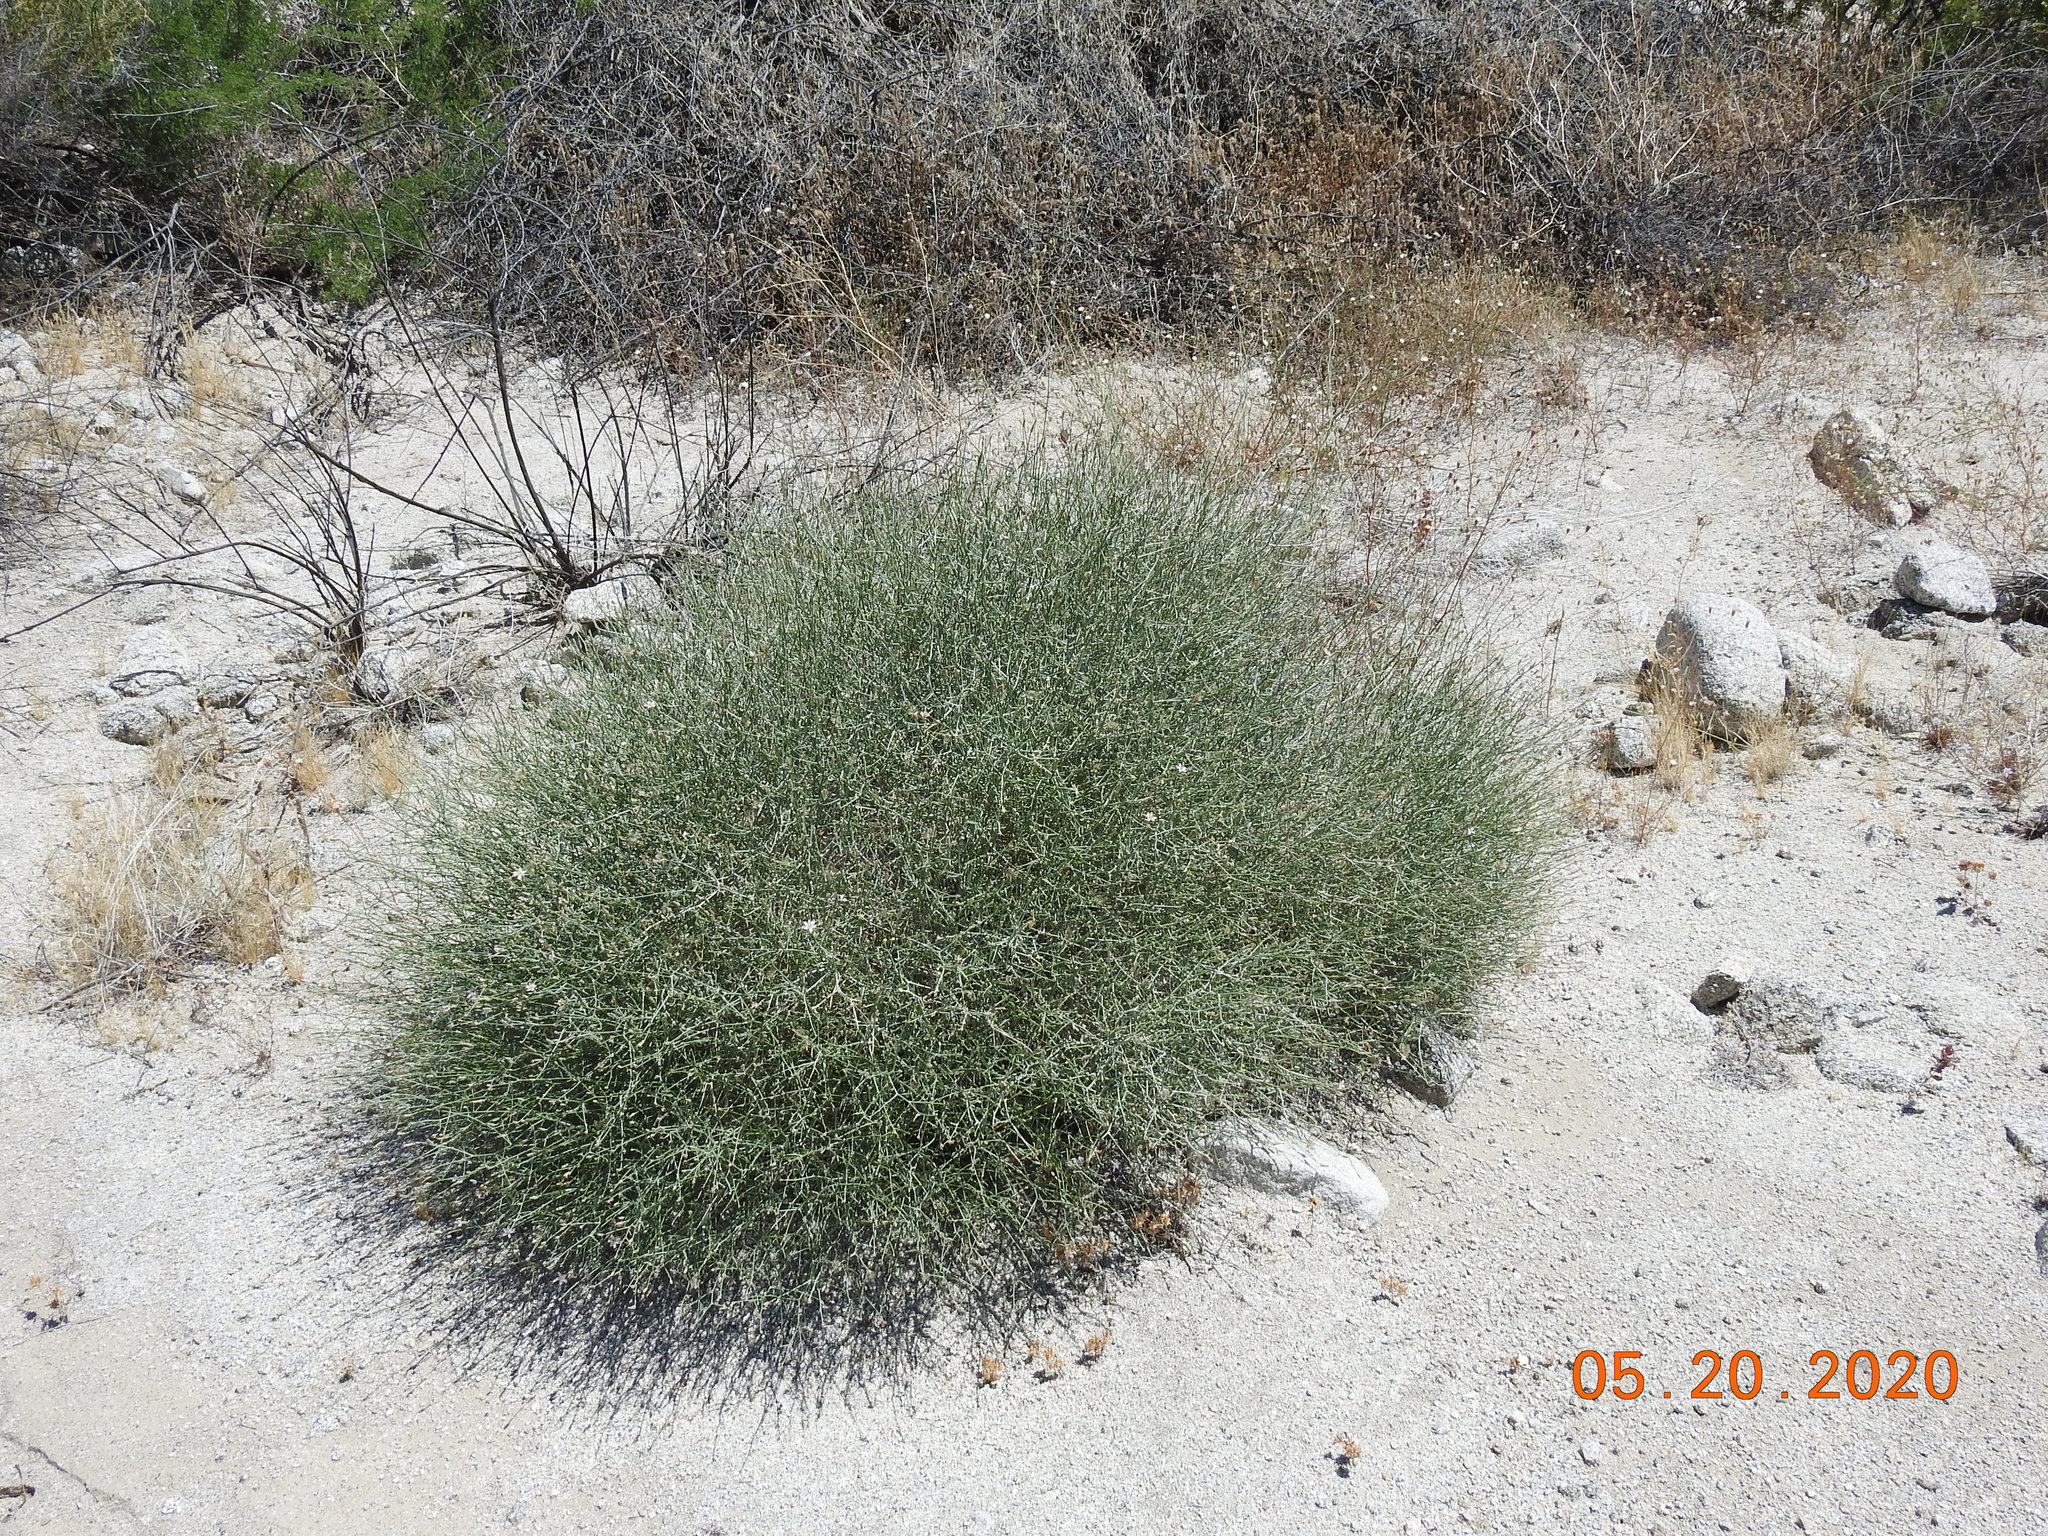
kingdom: Plantae
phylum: Tracheophyta
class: Magnoliopsida
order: Asterales
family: Asteraceae
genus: Stephanomeria
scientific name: Stephanomeria pauciflora
